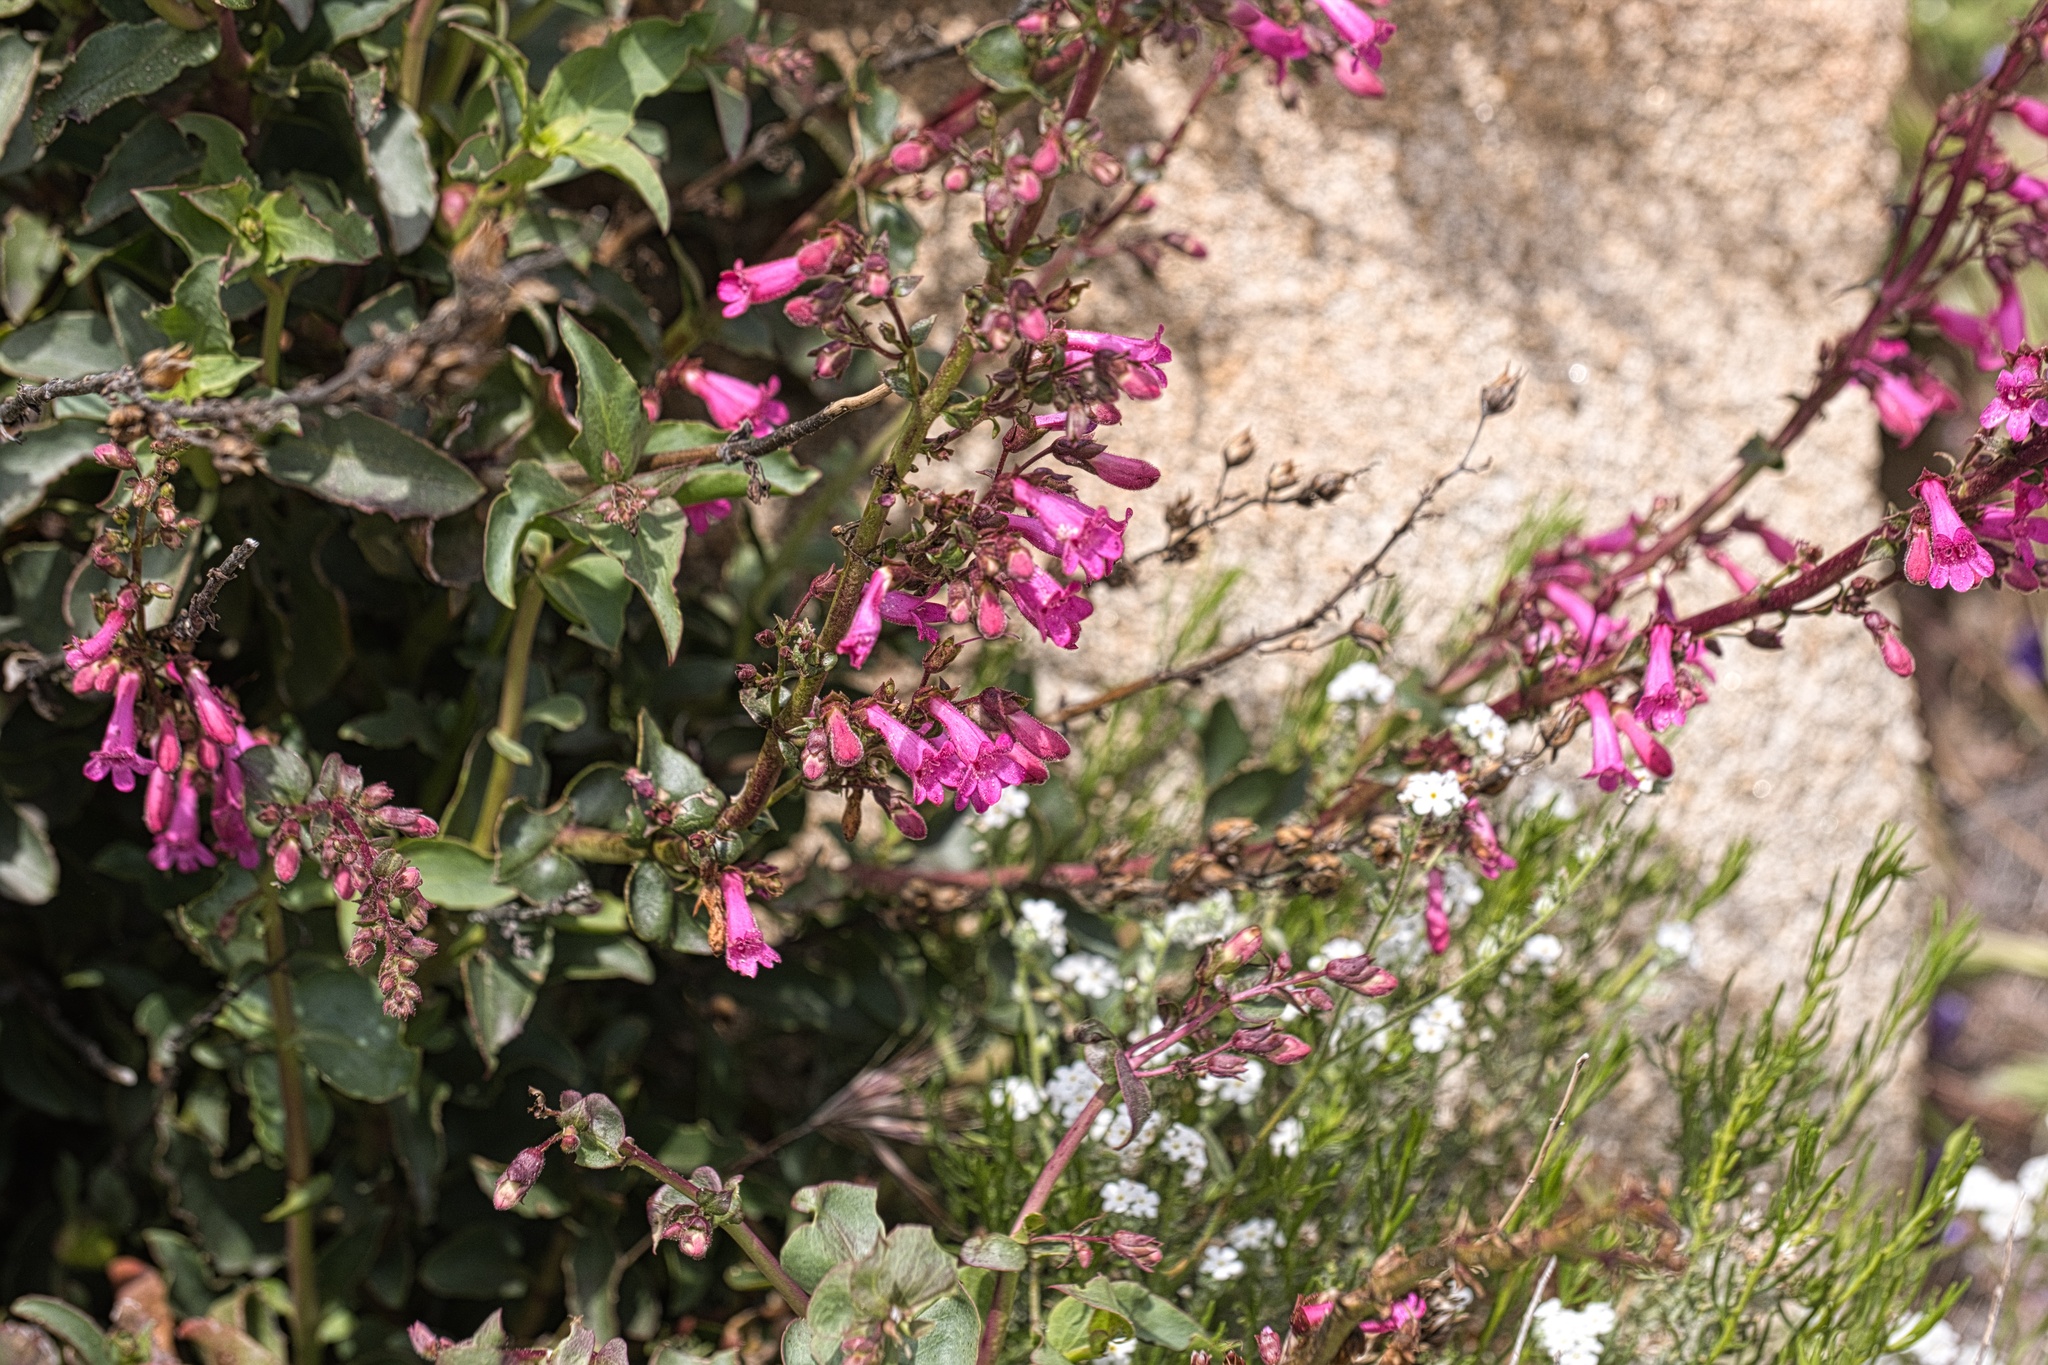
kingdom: Plantae
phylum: Tracheophyta
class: Magnoliopsida
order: Lamiales
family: Plantaginaceae
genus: Penstemon
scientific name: Penstemon clevelandii
